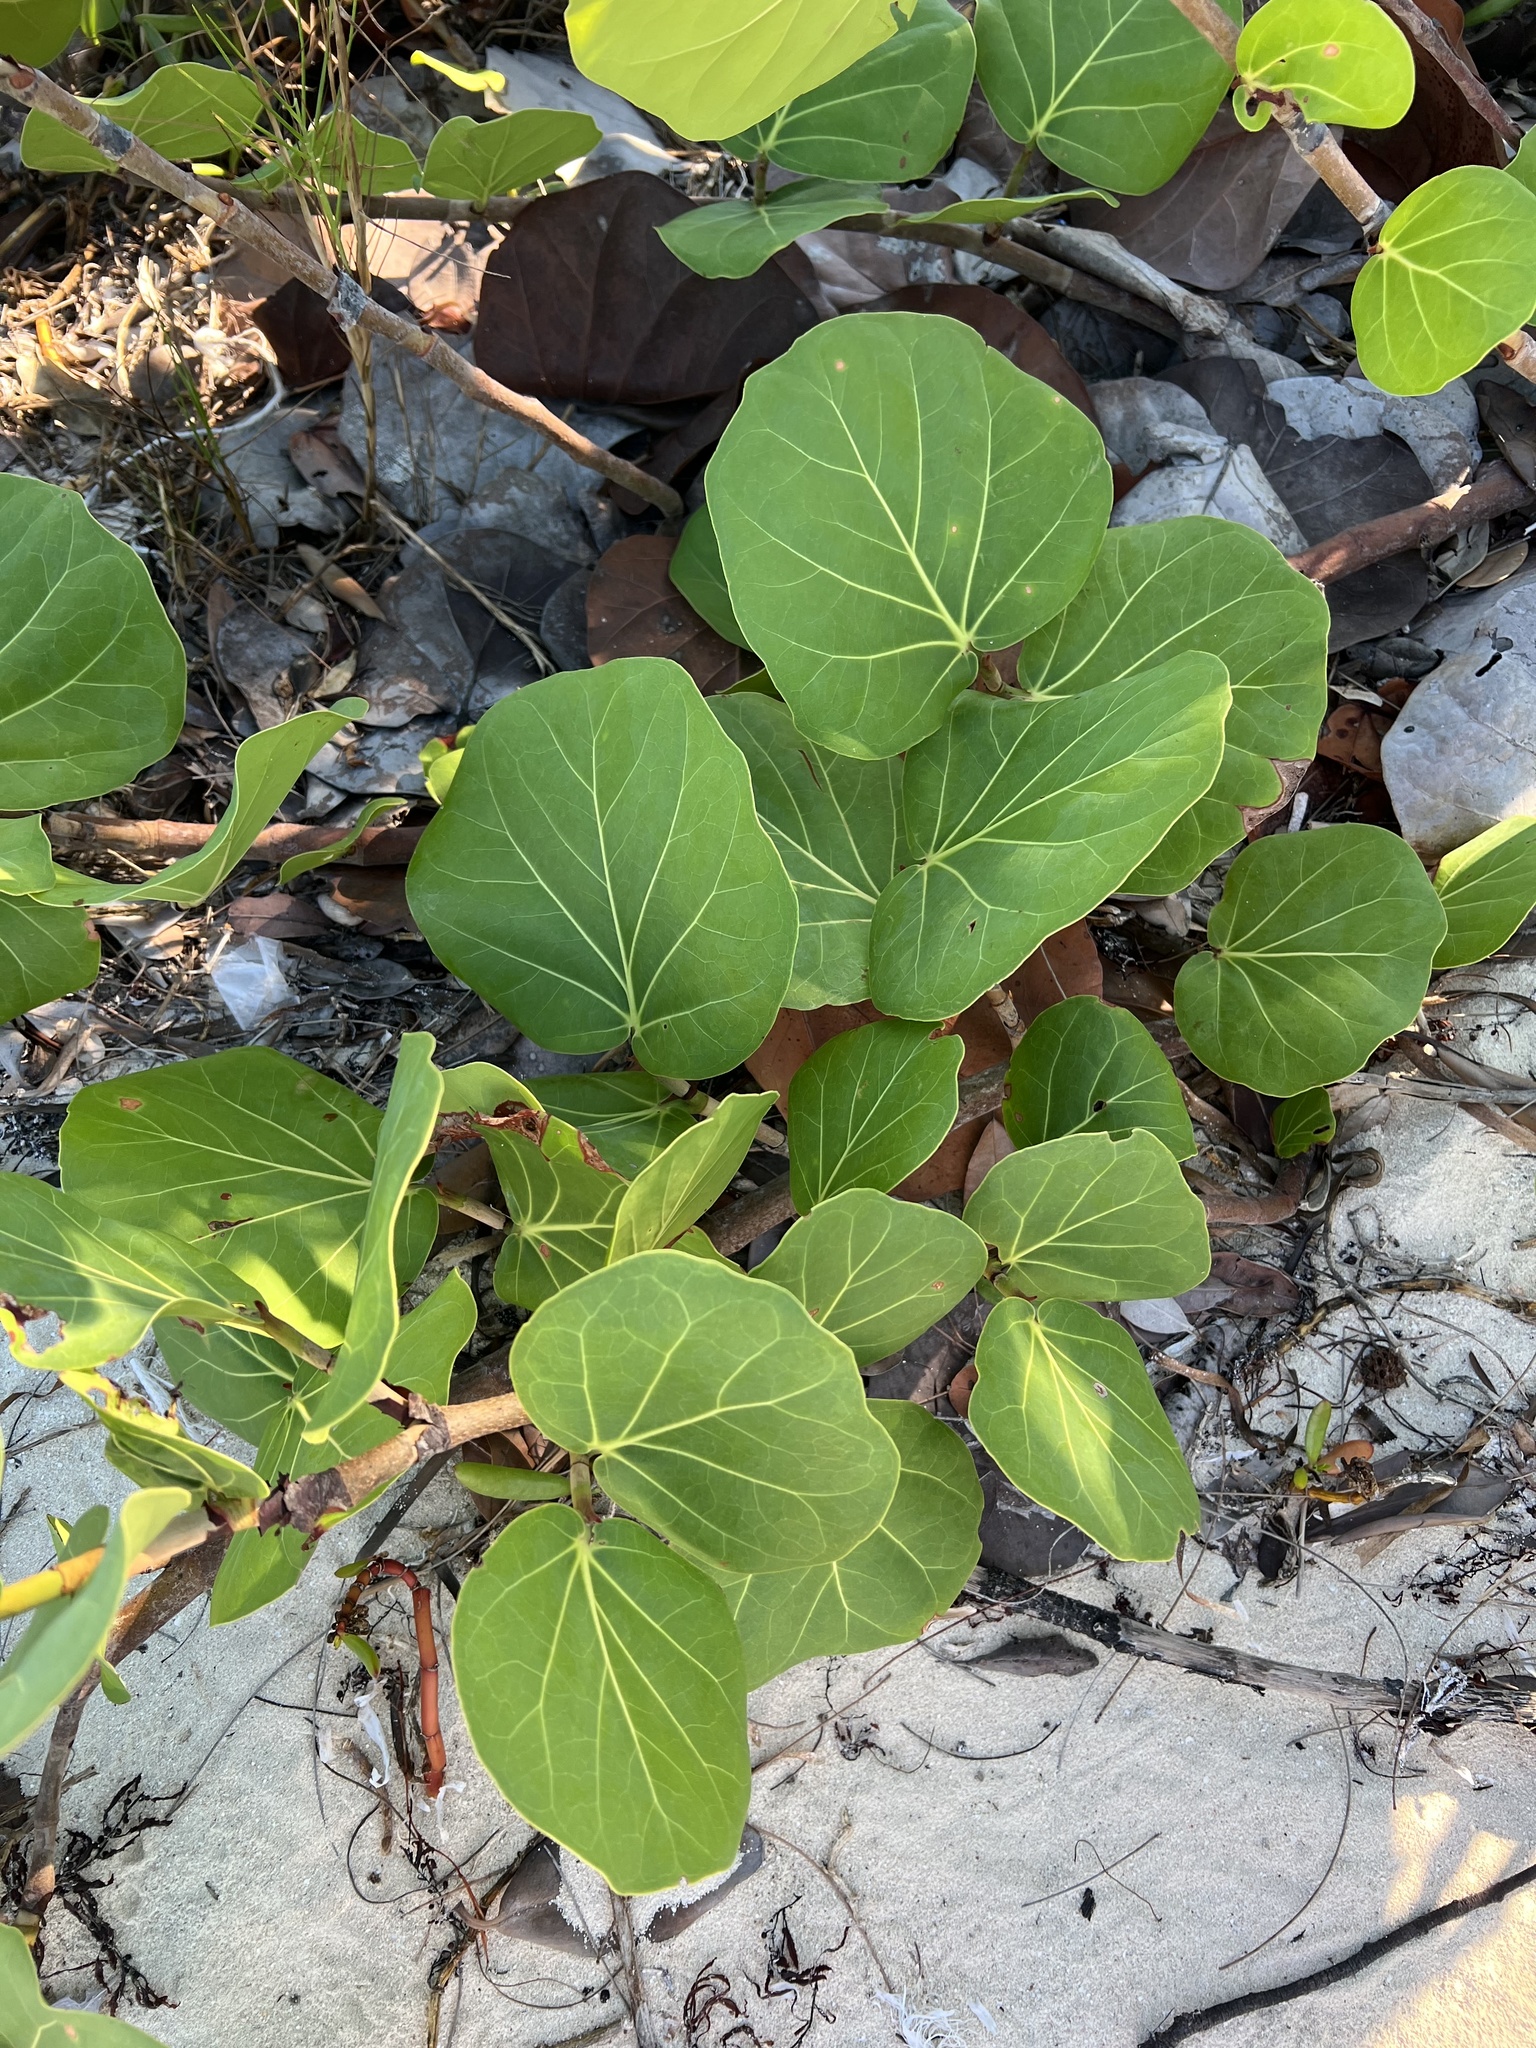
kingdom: Plantae
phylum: Tracheophyta
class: Magnoliopsida
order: Caryophyllales
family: Polygonaceae
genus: Coccoloba
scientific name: Coccoloba uvifera
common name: Seagrape
